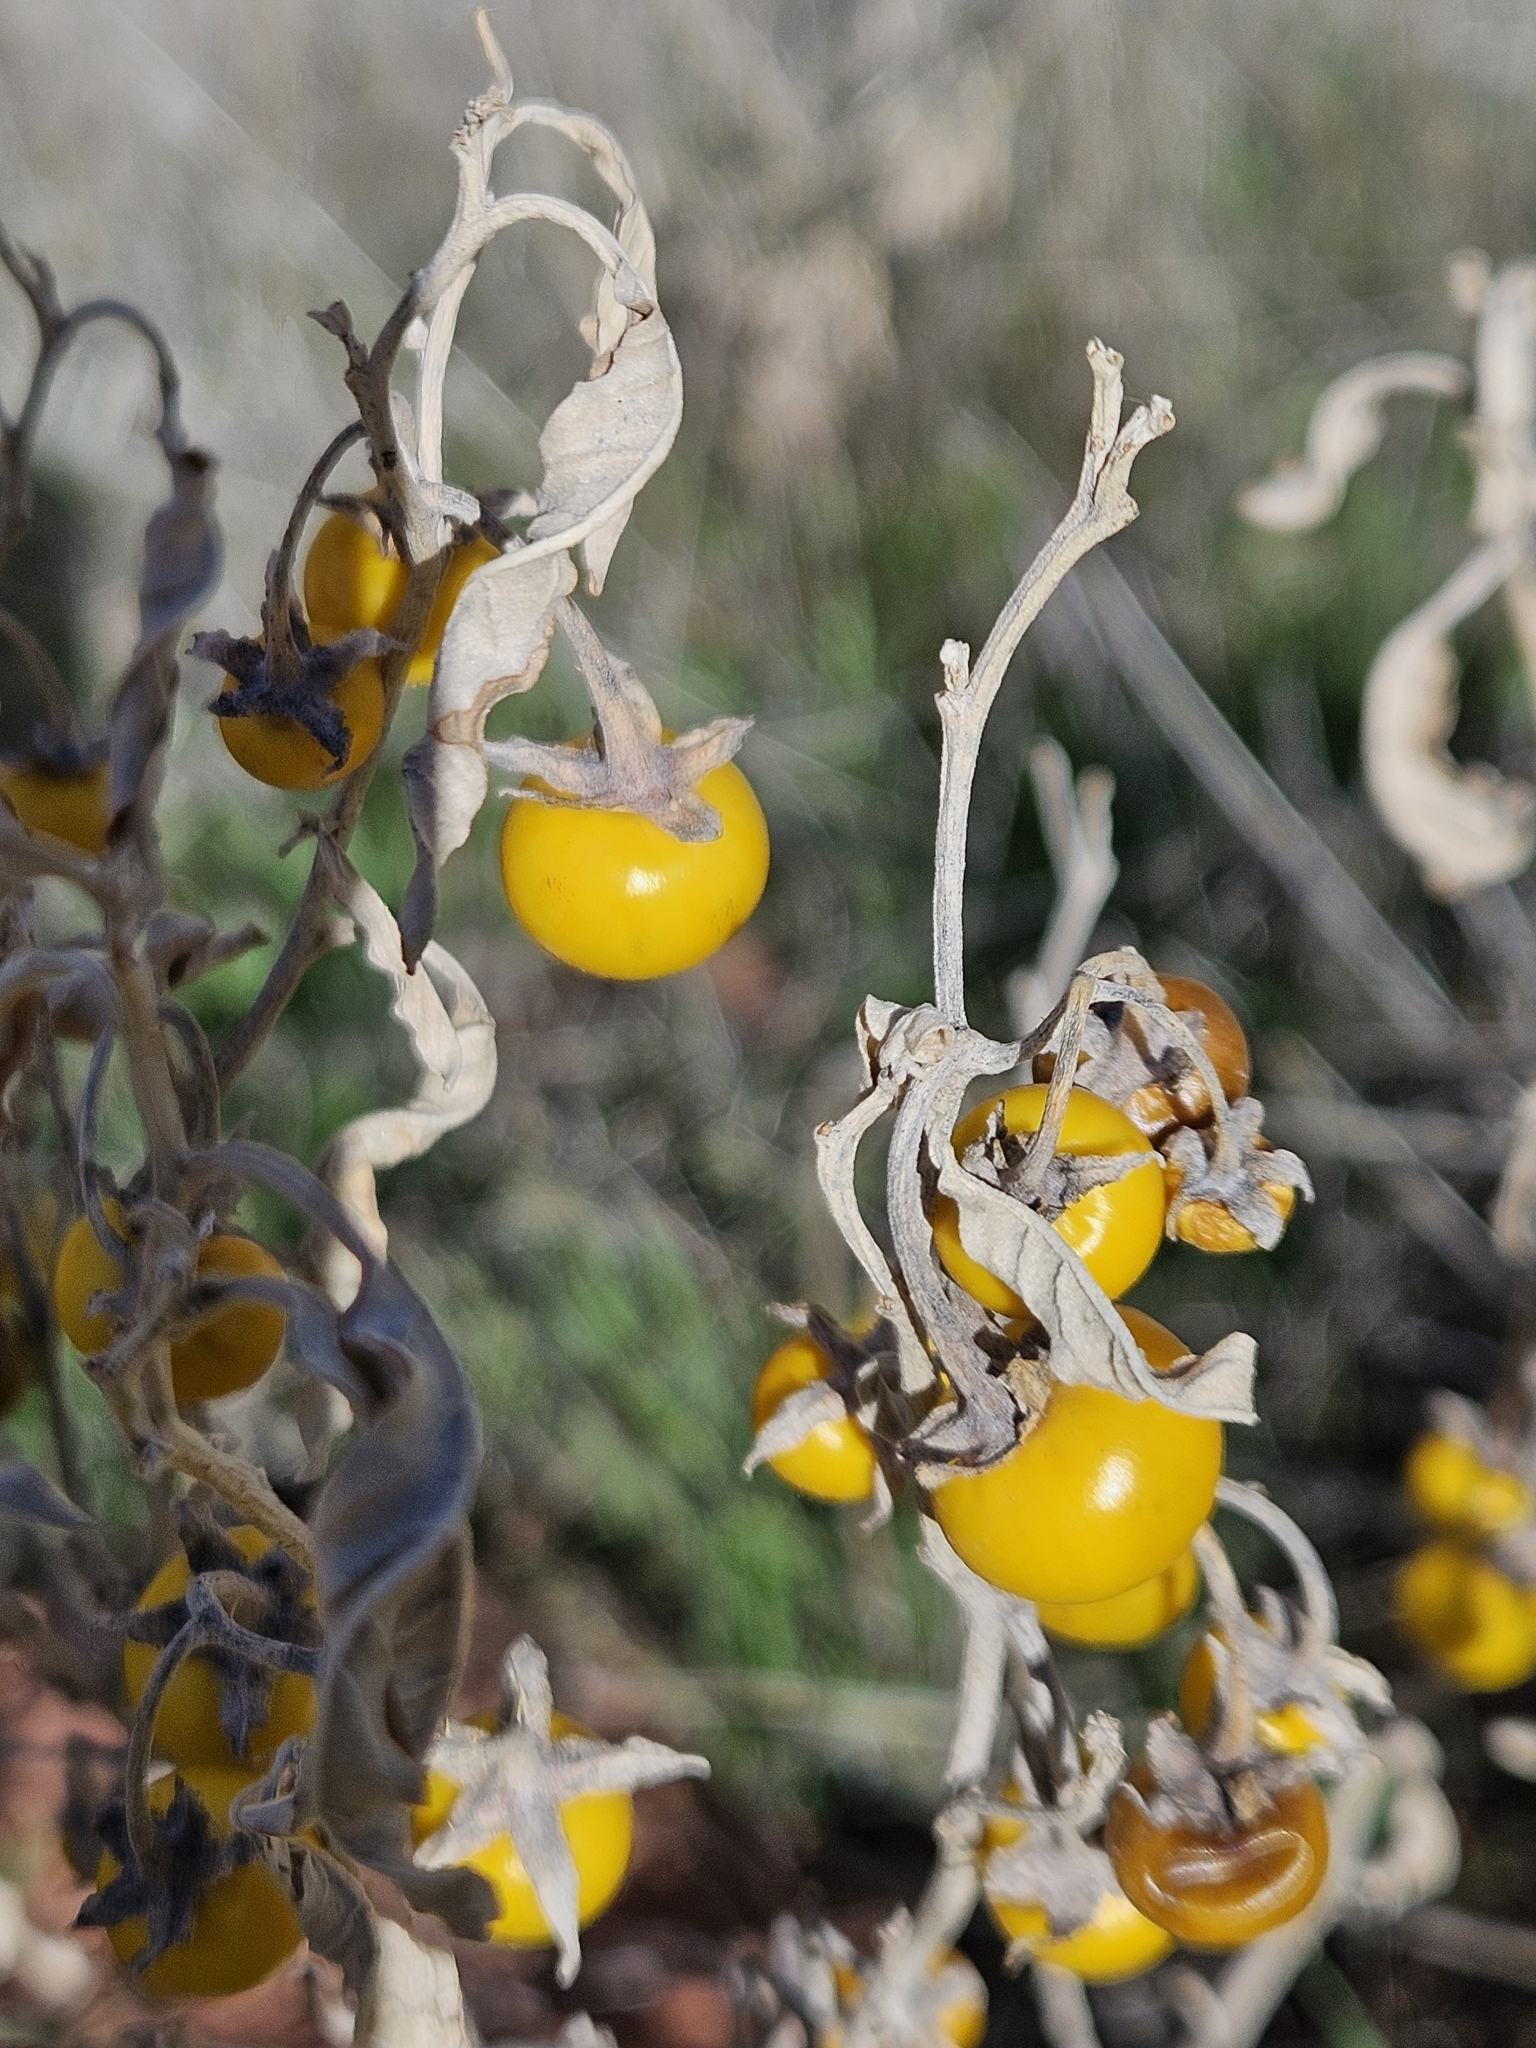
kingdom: Plantae
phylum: Tracheophyta
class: Magnoliopsida
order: Solanales
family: Solanaceae
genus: Solanum
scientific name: Solanum elaeagnifolium
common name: Silverleaf nightshade
